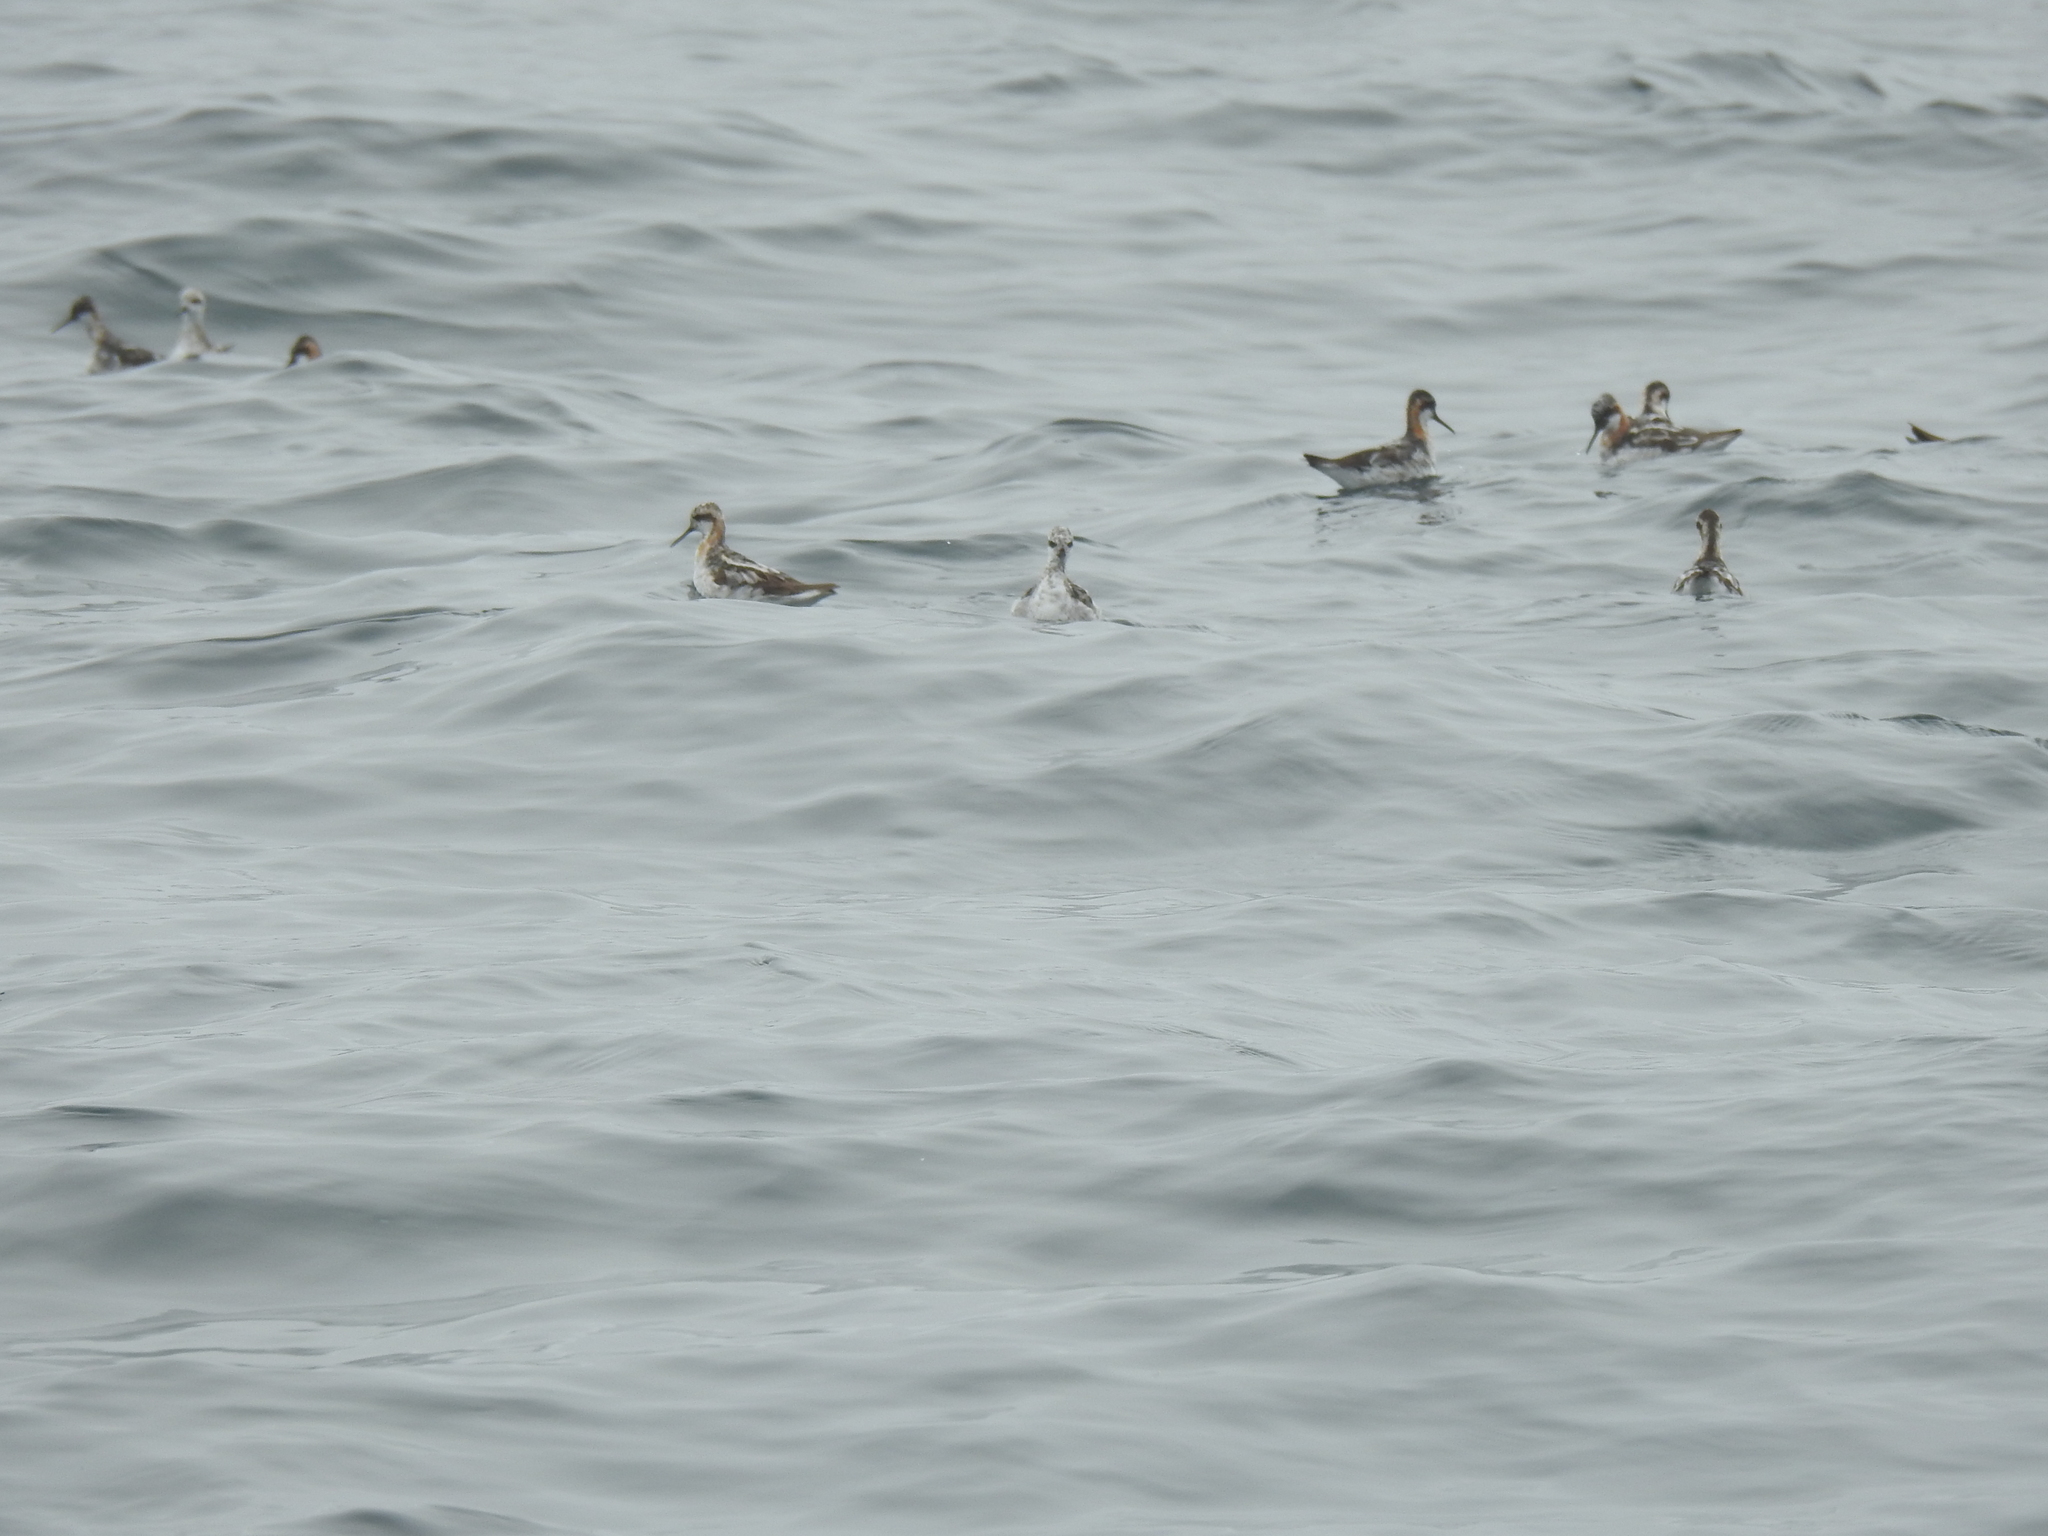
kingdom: Animalia
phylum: Chordata
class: Aves
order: Charadriiformes
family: Scolopacidae
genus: Phalaropus
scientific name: Phalaropus lobatus
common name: Red-necked phalarope
